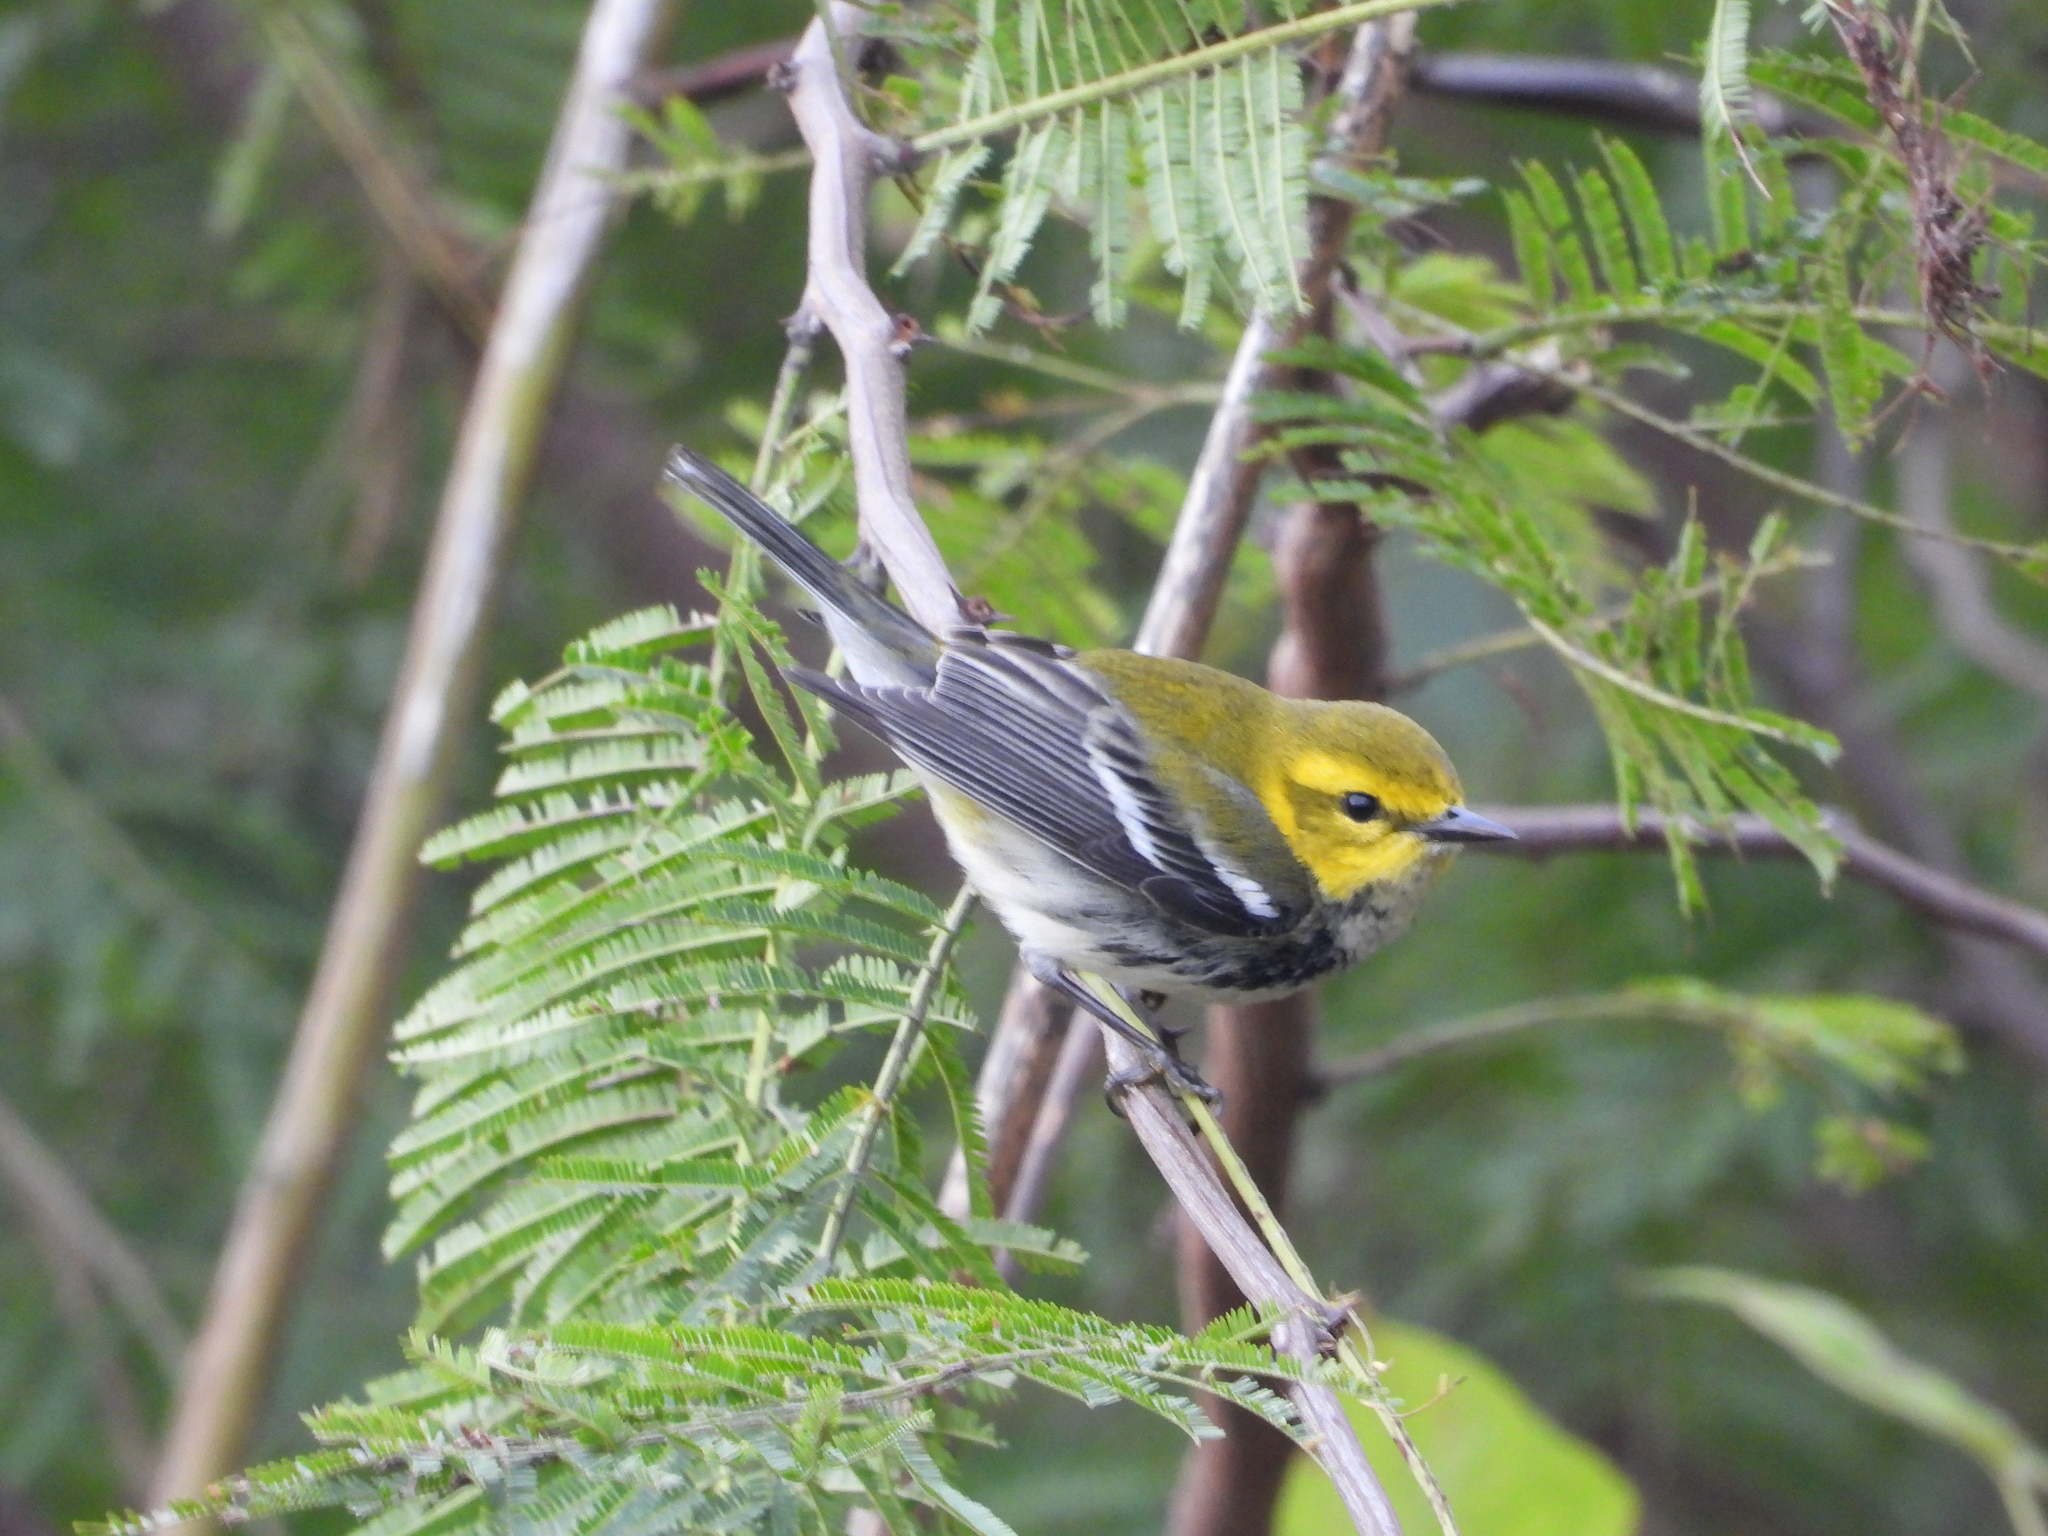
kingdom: Animalia
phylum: Chordata
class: Aves
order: Passeriformes
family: Parulidae
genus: Setophaga
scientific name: Setophaga virens
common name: Black-throated green warbler
